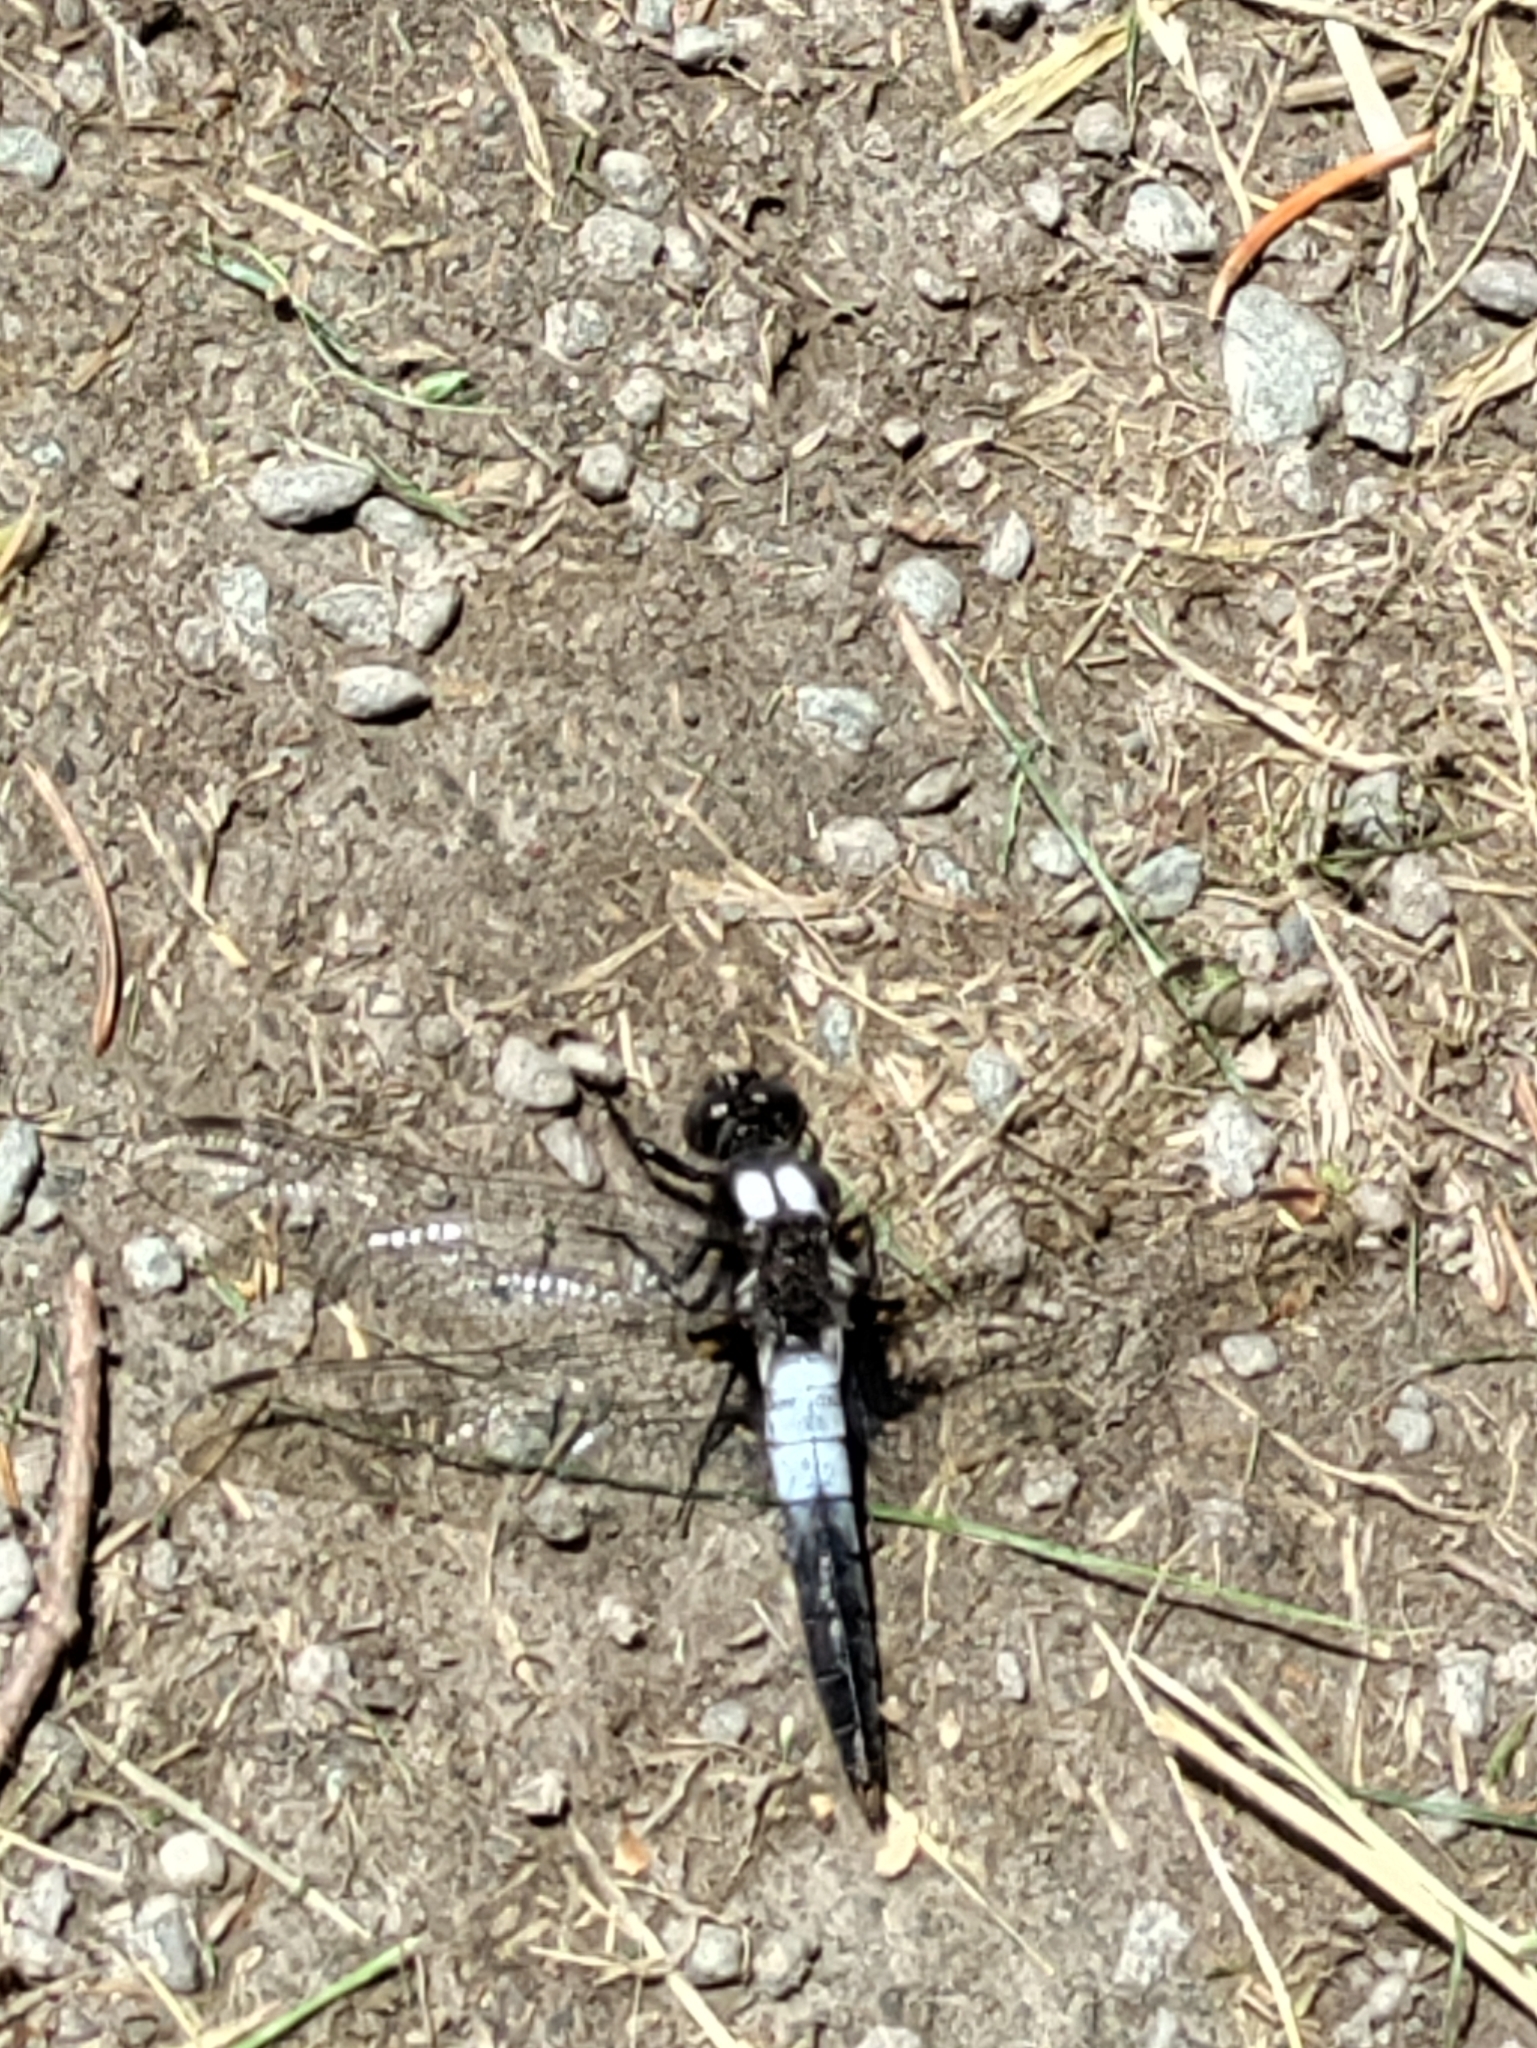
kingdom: Animalia
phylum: Arthropoda
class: Insecta
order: Odonata
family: Libellulidae
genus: Ladona
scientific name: Ladona julia
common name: Chalk-fronted corporal
